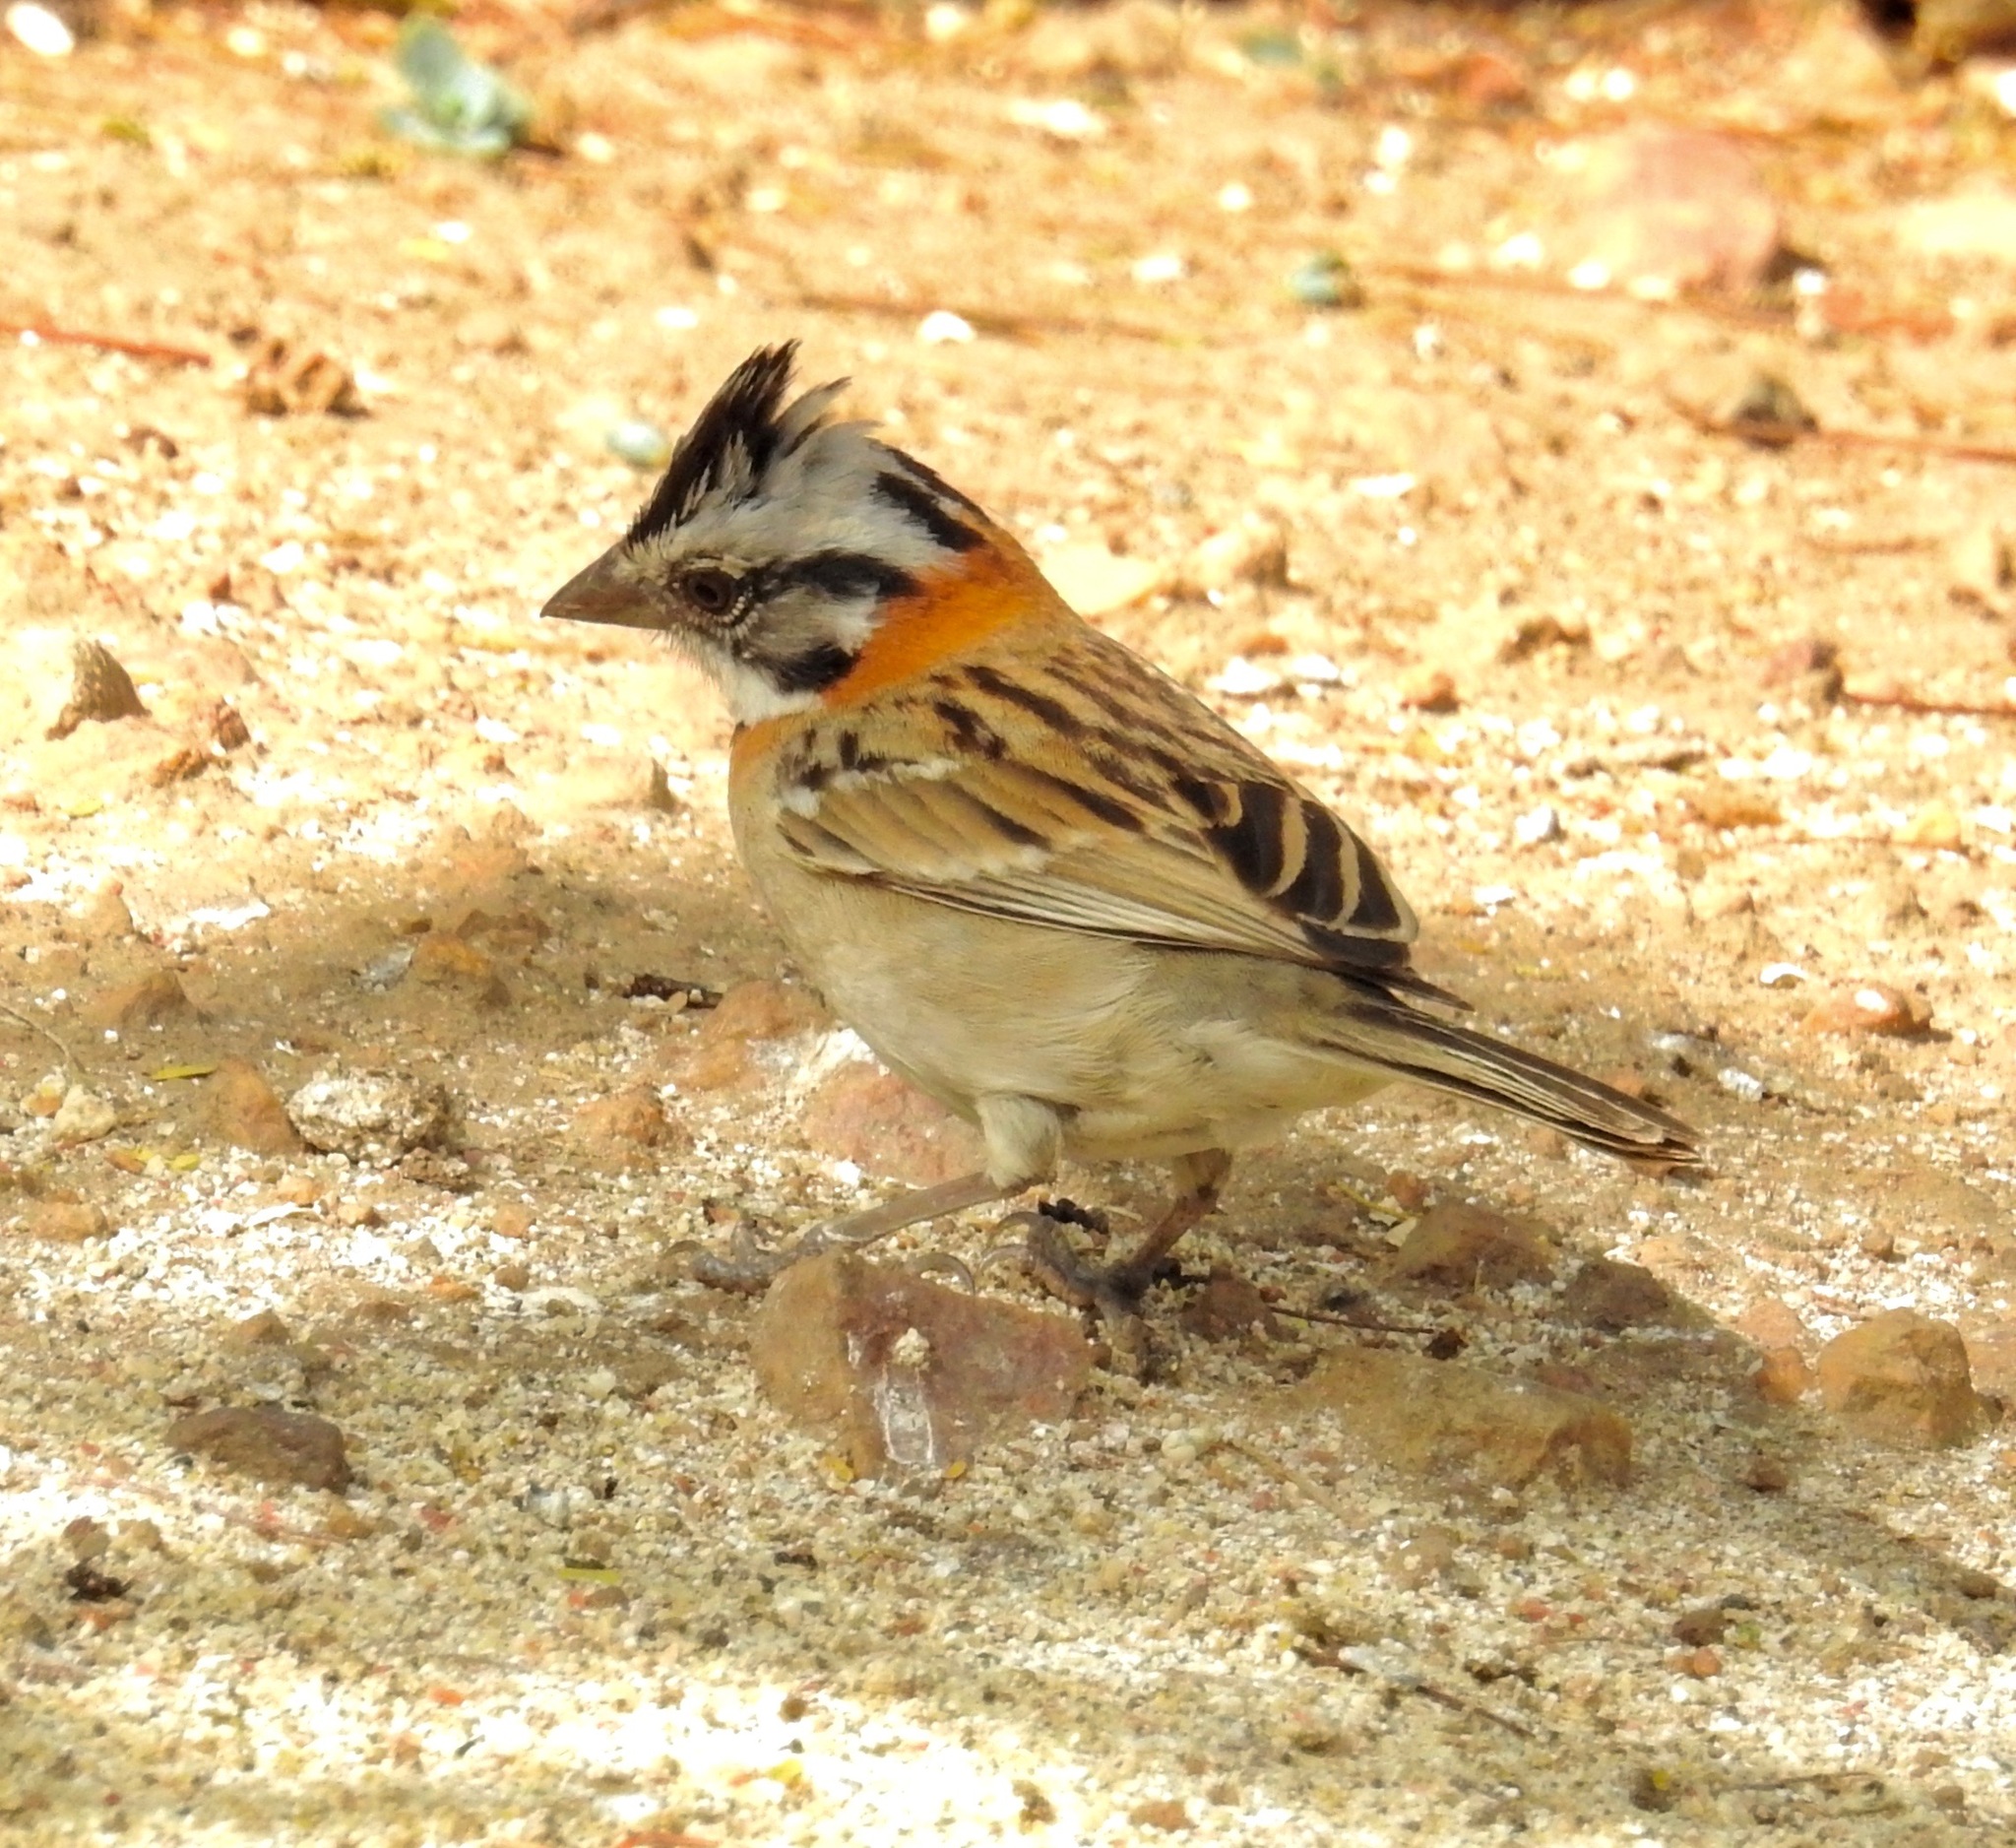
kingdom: Animalia
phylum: Chordata
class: Aves
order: Passeriformes
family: Passerellidae
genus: Zonotrichia
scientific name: Zonotrichia capensis
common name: Rufous-collared sparrow
